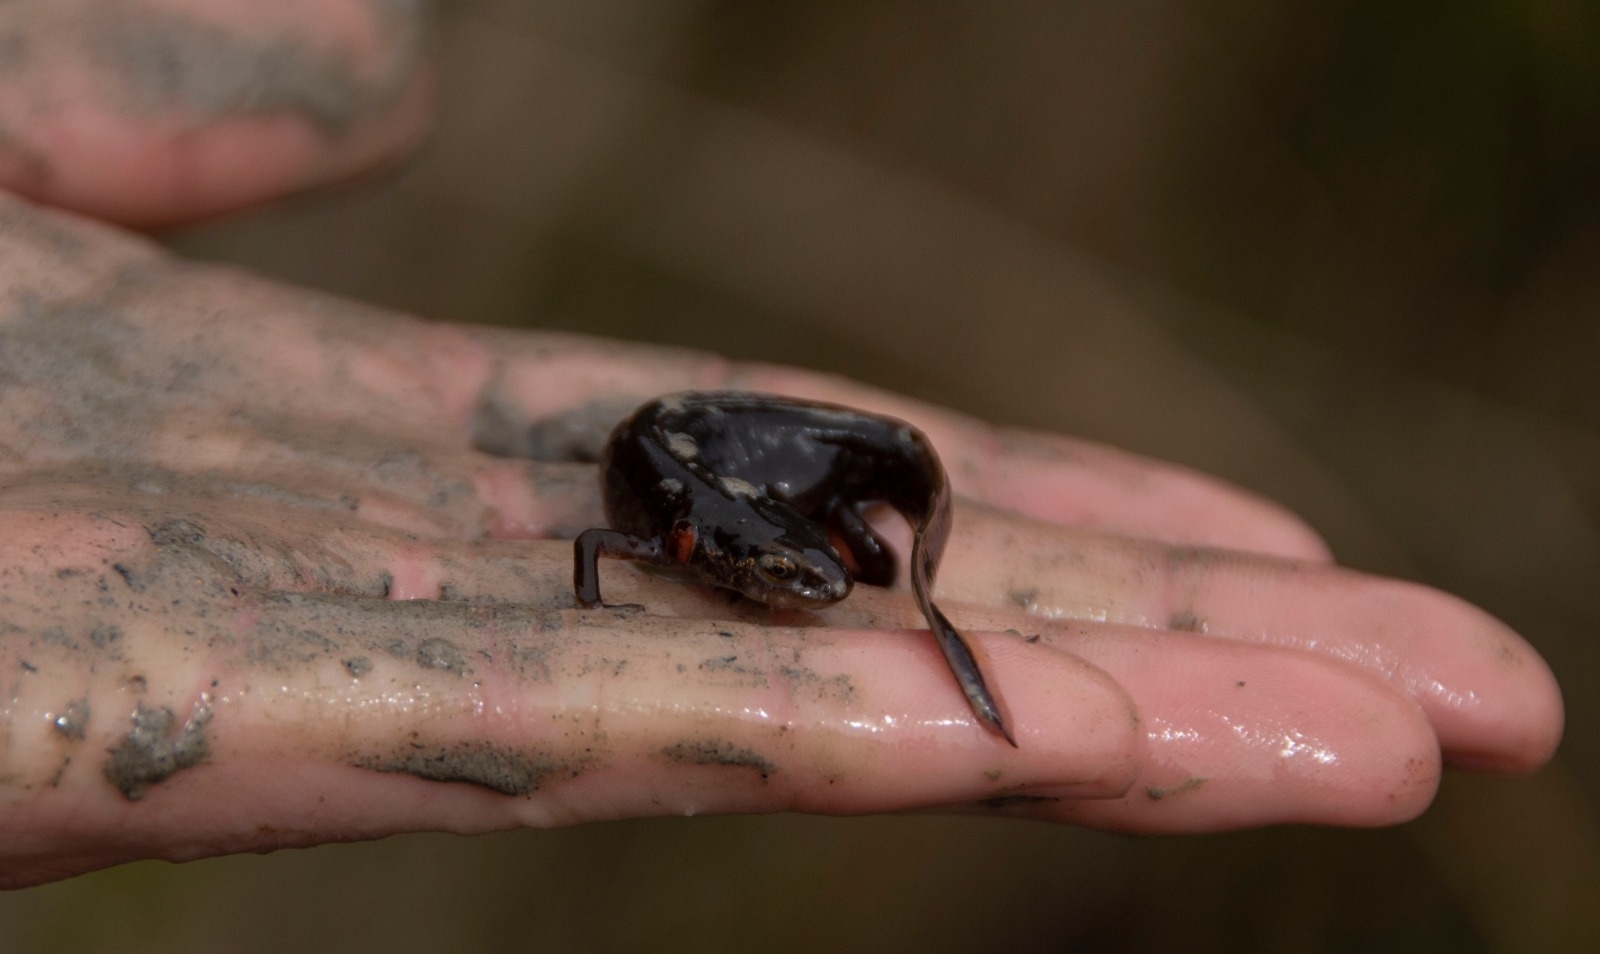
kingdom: Animalia
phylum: Chordata
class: Amphibia
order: Caudata
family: Salamandridae
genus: Lissotriton
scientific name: Lissotriton helveticus
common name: Palmate newt
